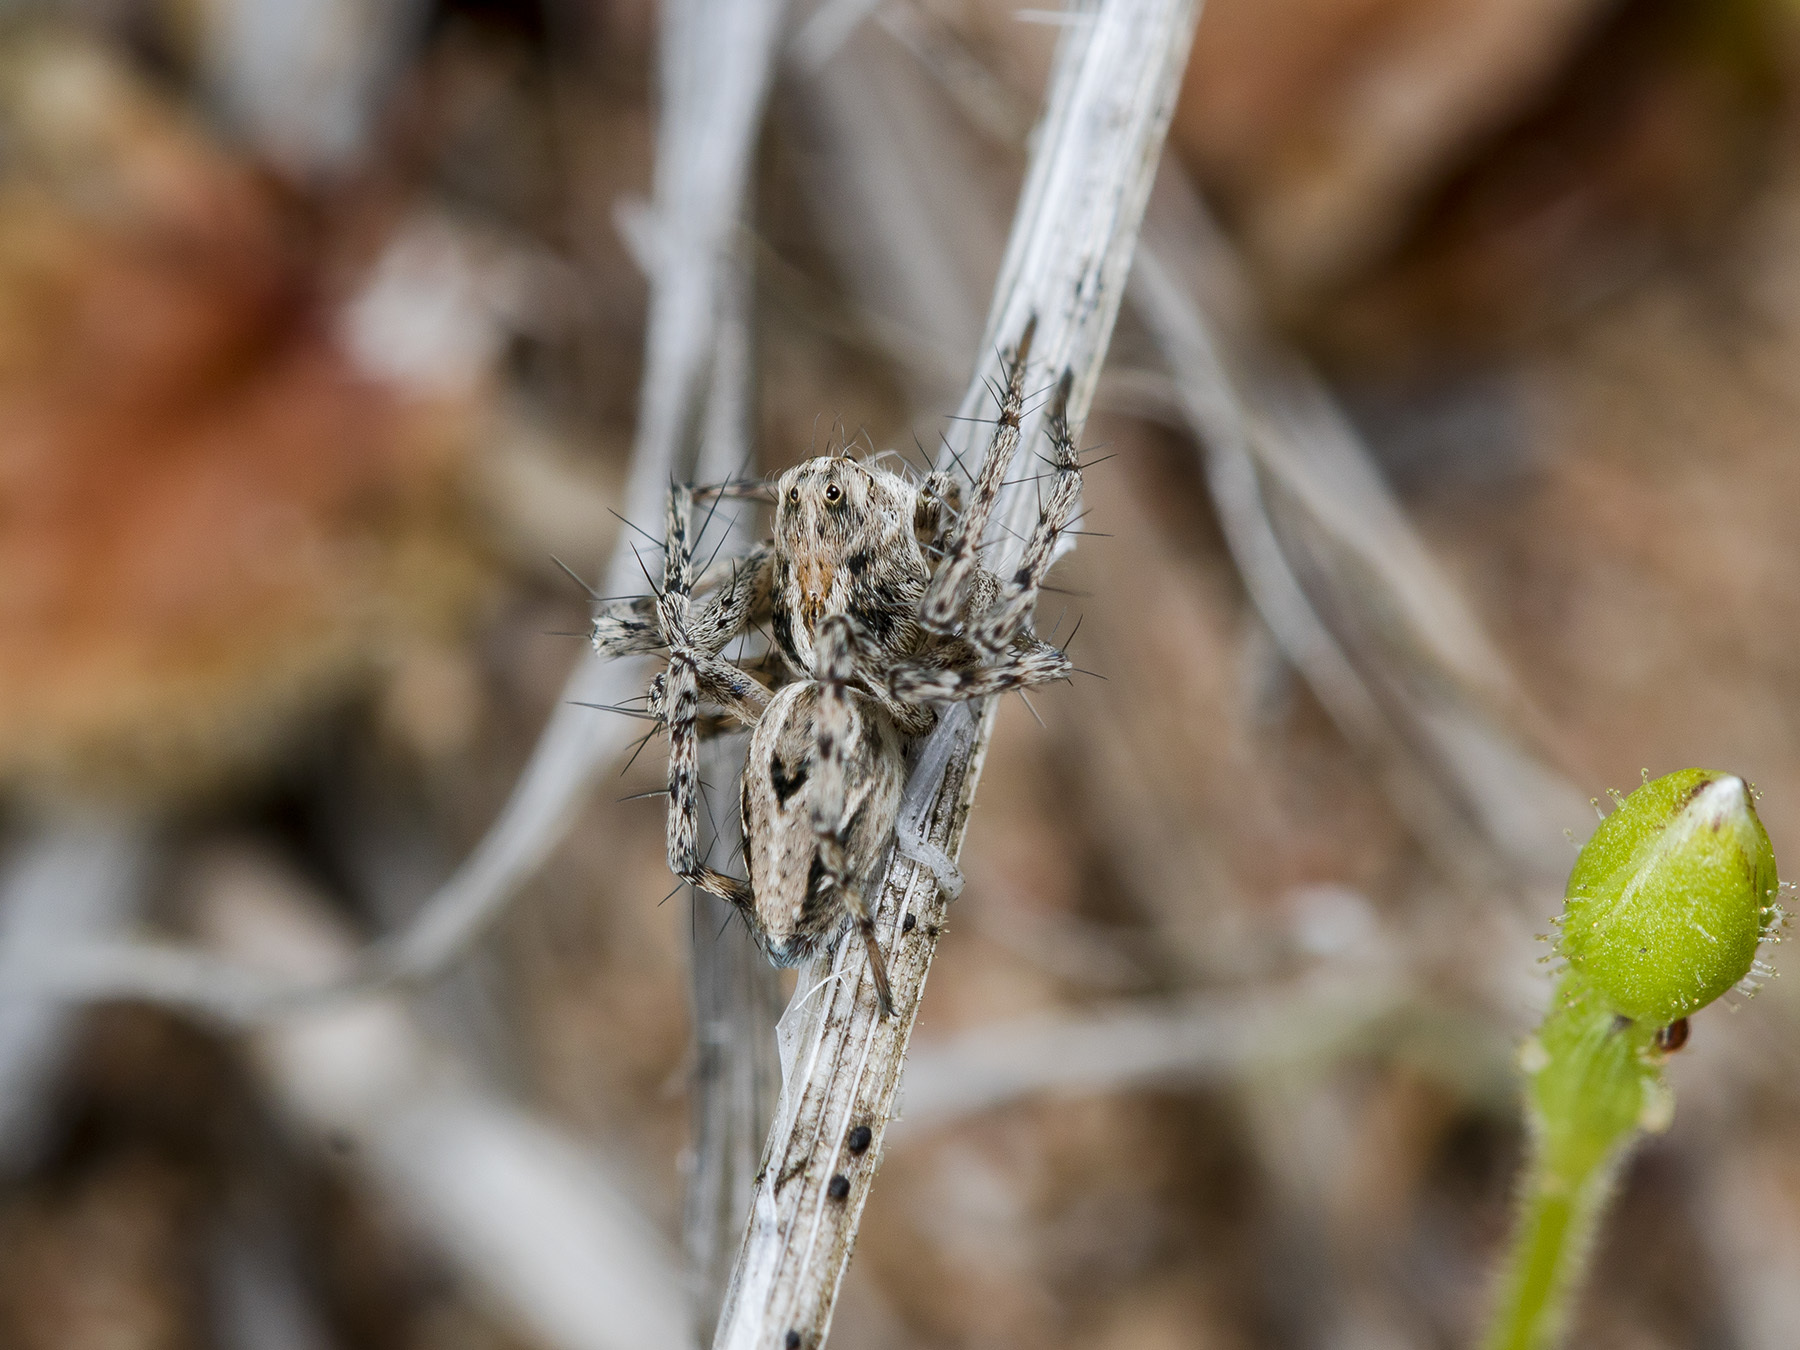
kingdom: Animalia
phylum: Arthropoda
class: Arachnida
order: Araneae
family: Oxyopidae
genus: Oxyopes
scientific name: Oxyopes takobius
